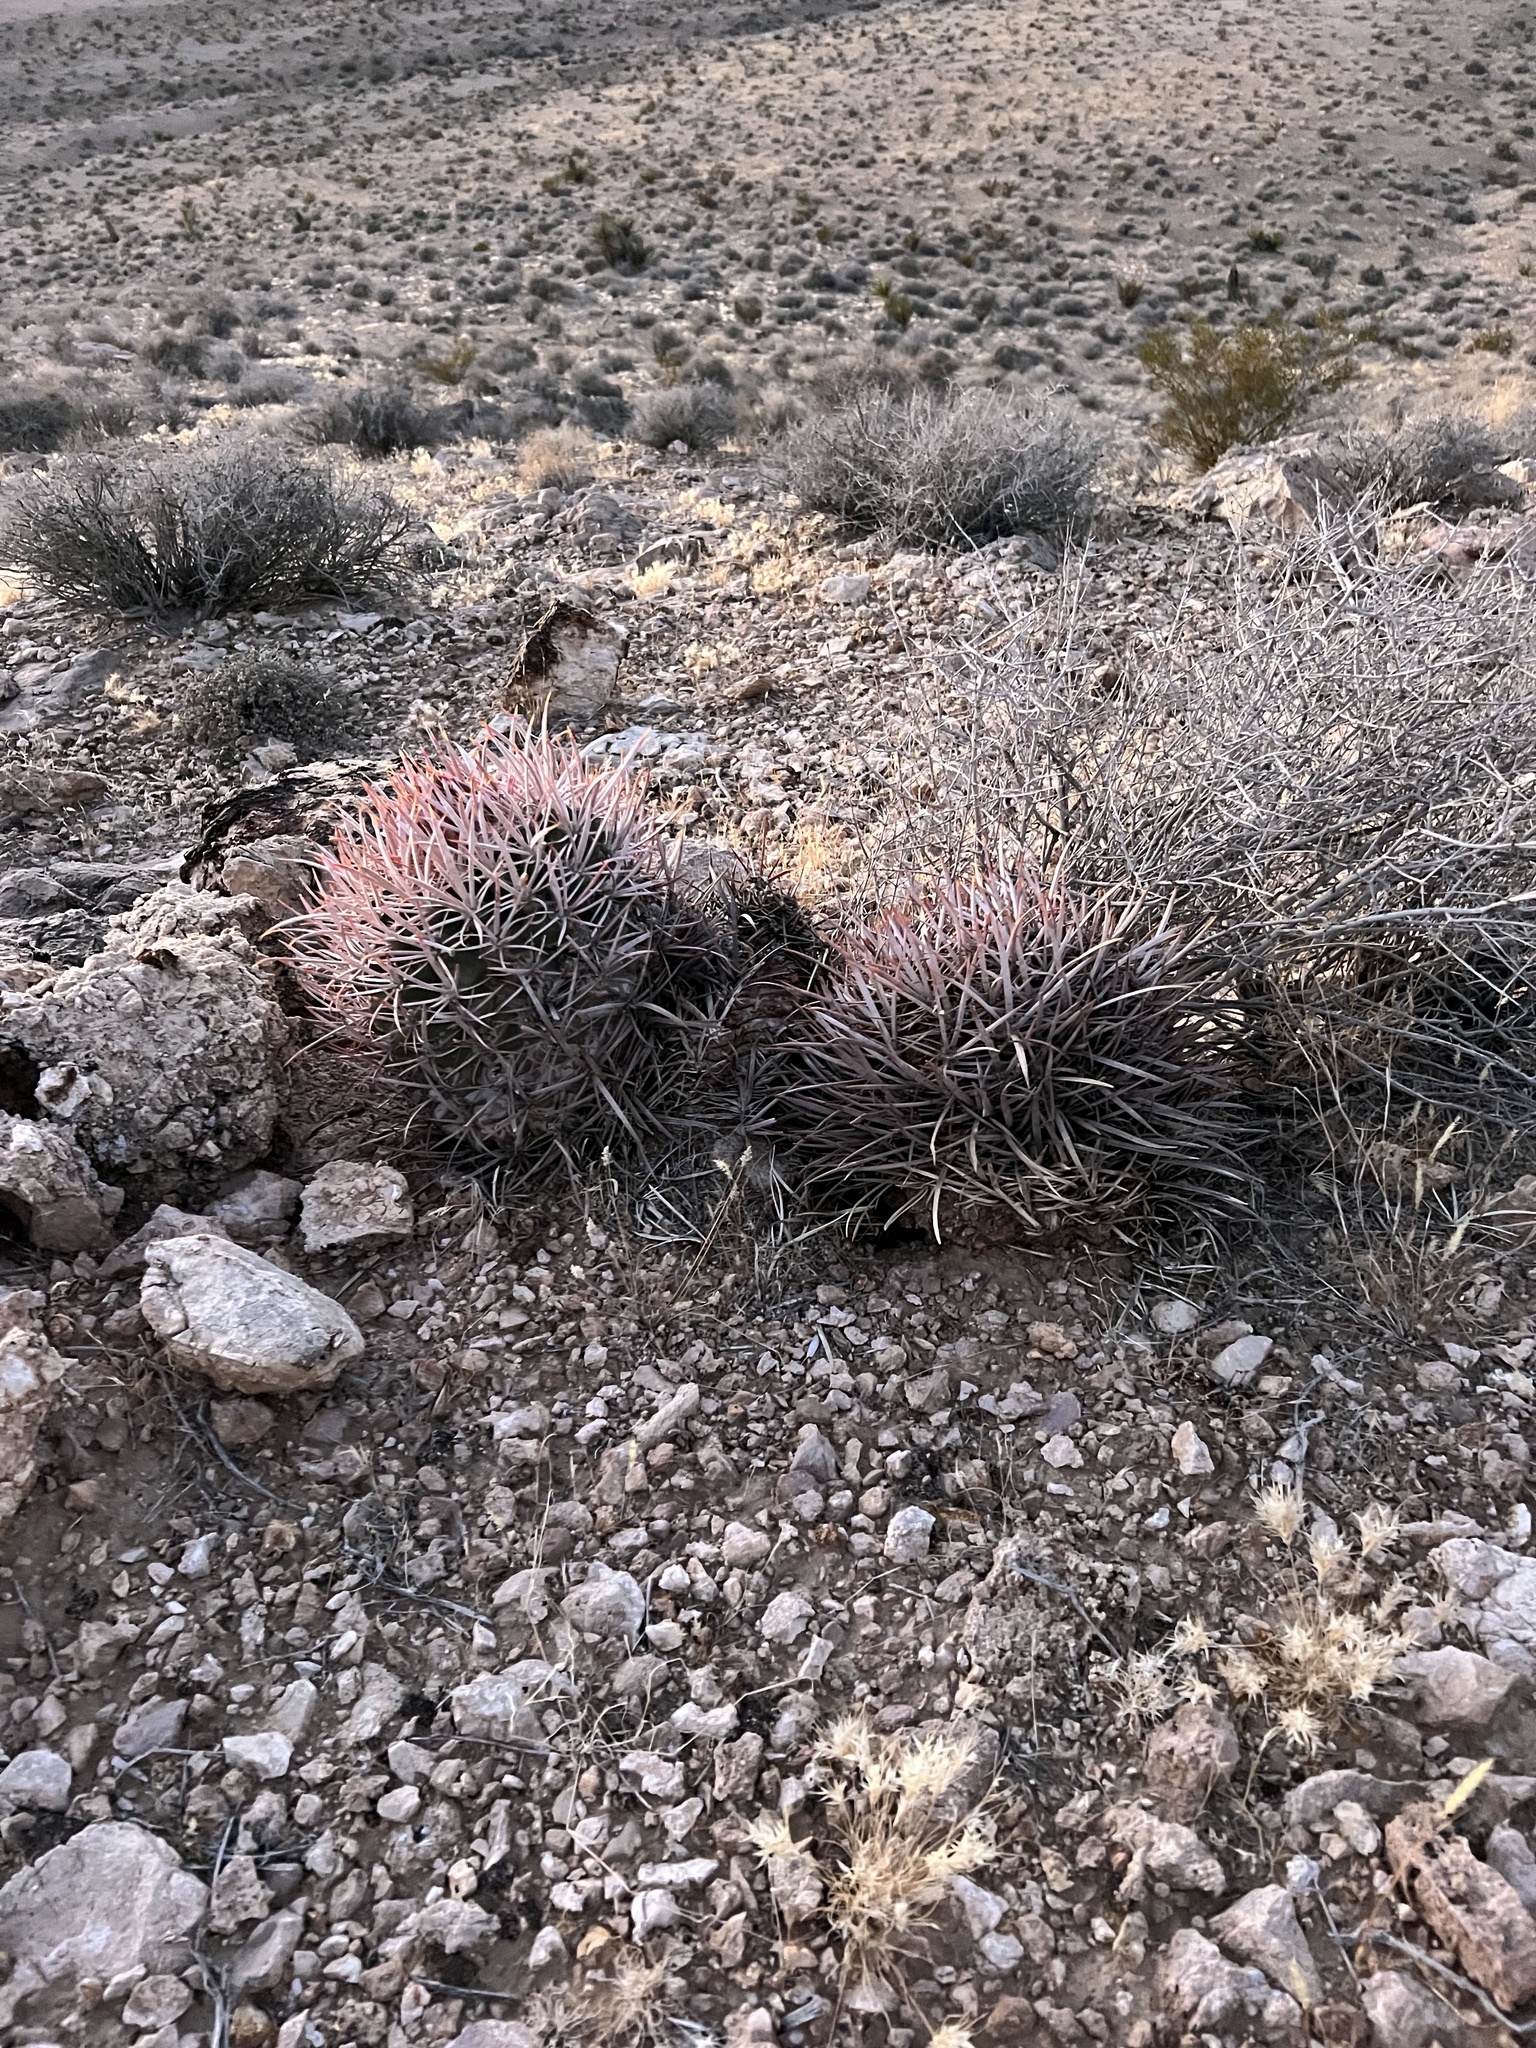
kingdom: Plantae
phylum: Tracheophyta
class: Magnoliopsida
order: Caryophyllales
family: Cactaceae
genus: Echinocactus
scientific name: Echinocactus polycephalus
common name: Cottontop cactus
